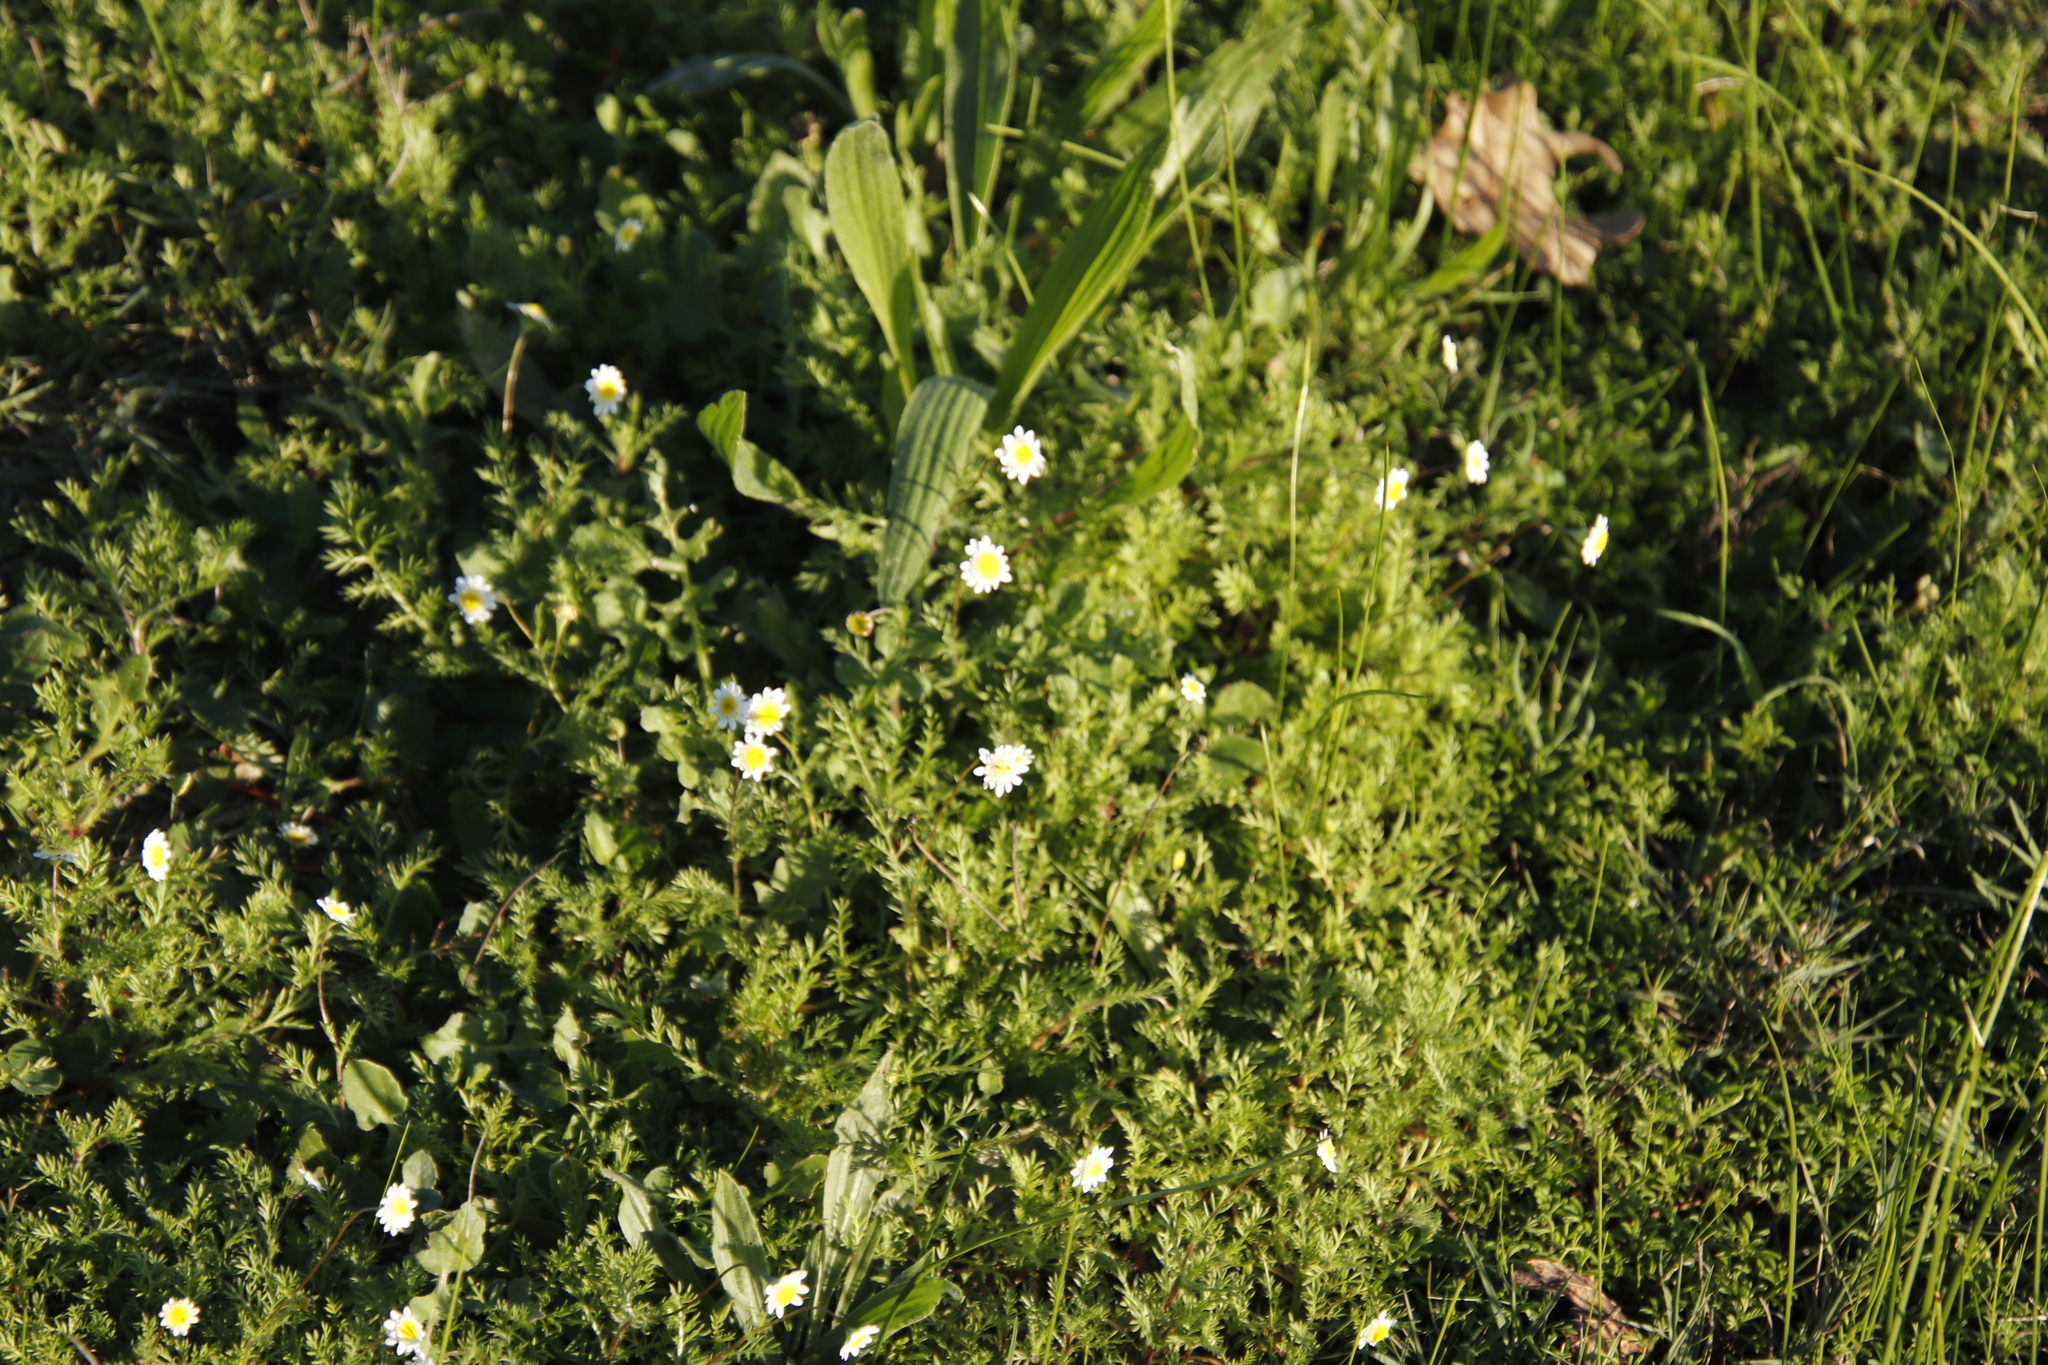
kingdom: Plantae
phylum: Tracheophyta
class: Magnoliopsida
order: Asterales
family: Asteraceae
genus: Cotula
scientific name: Cotula turbinata
